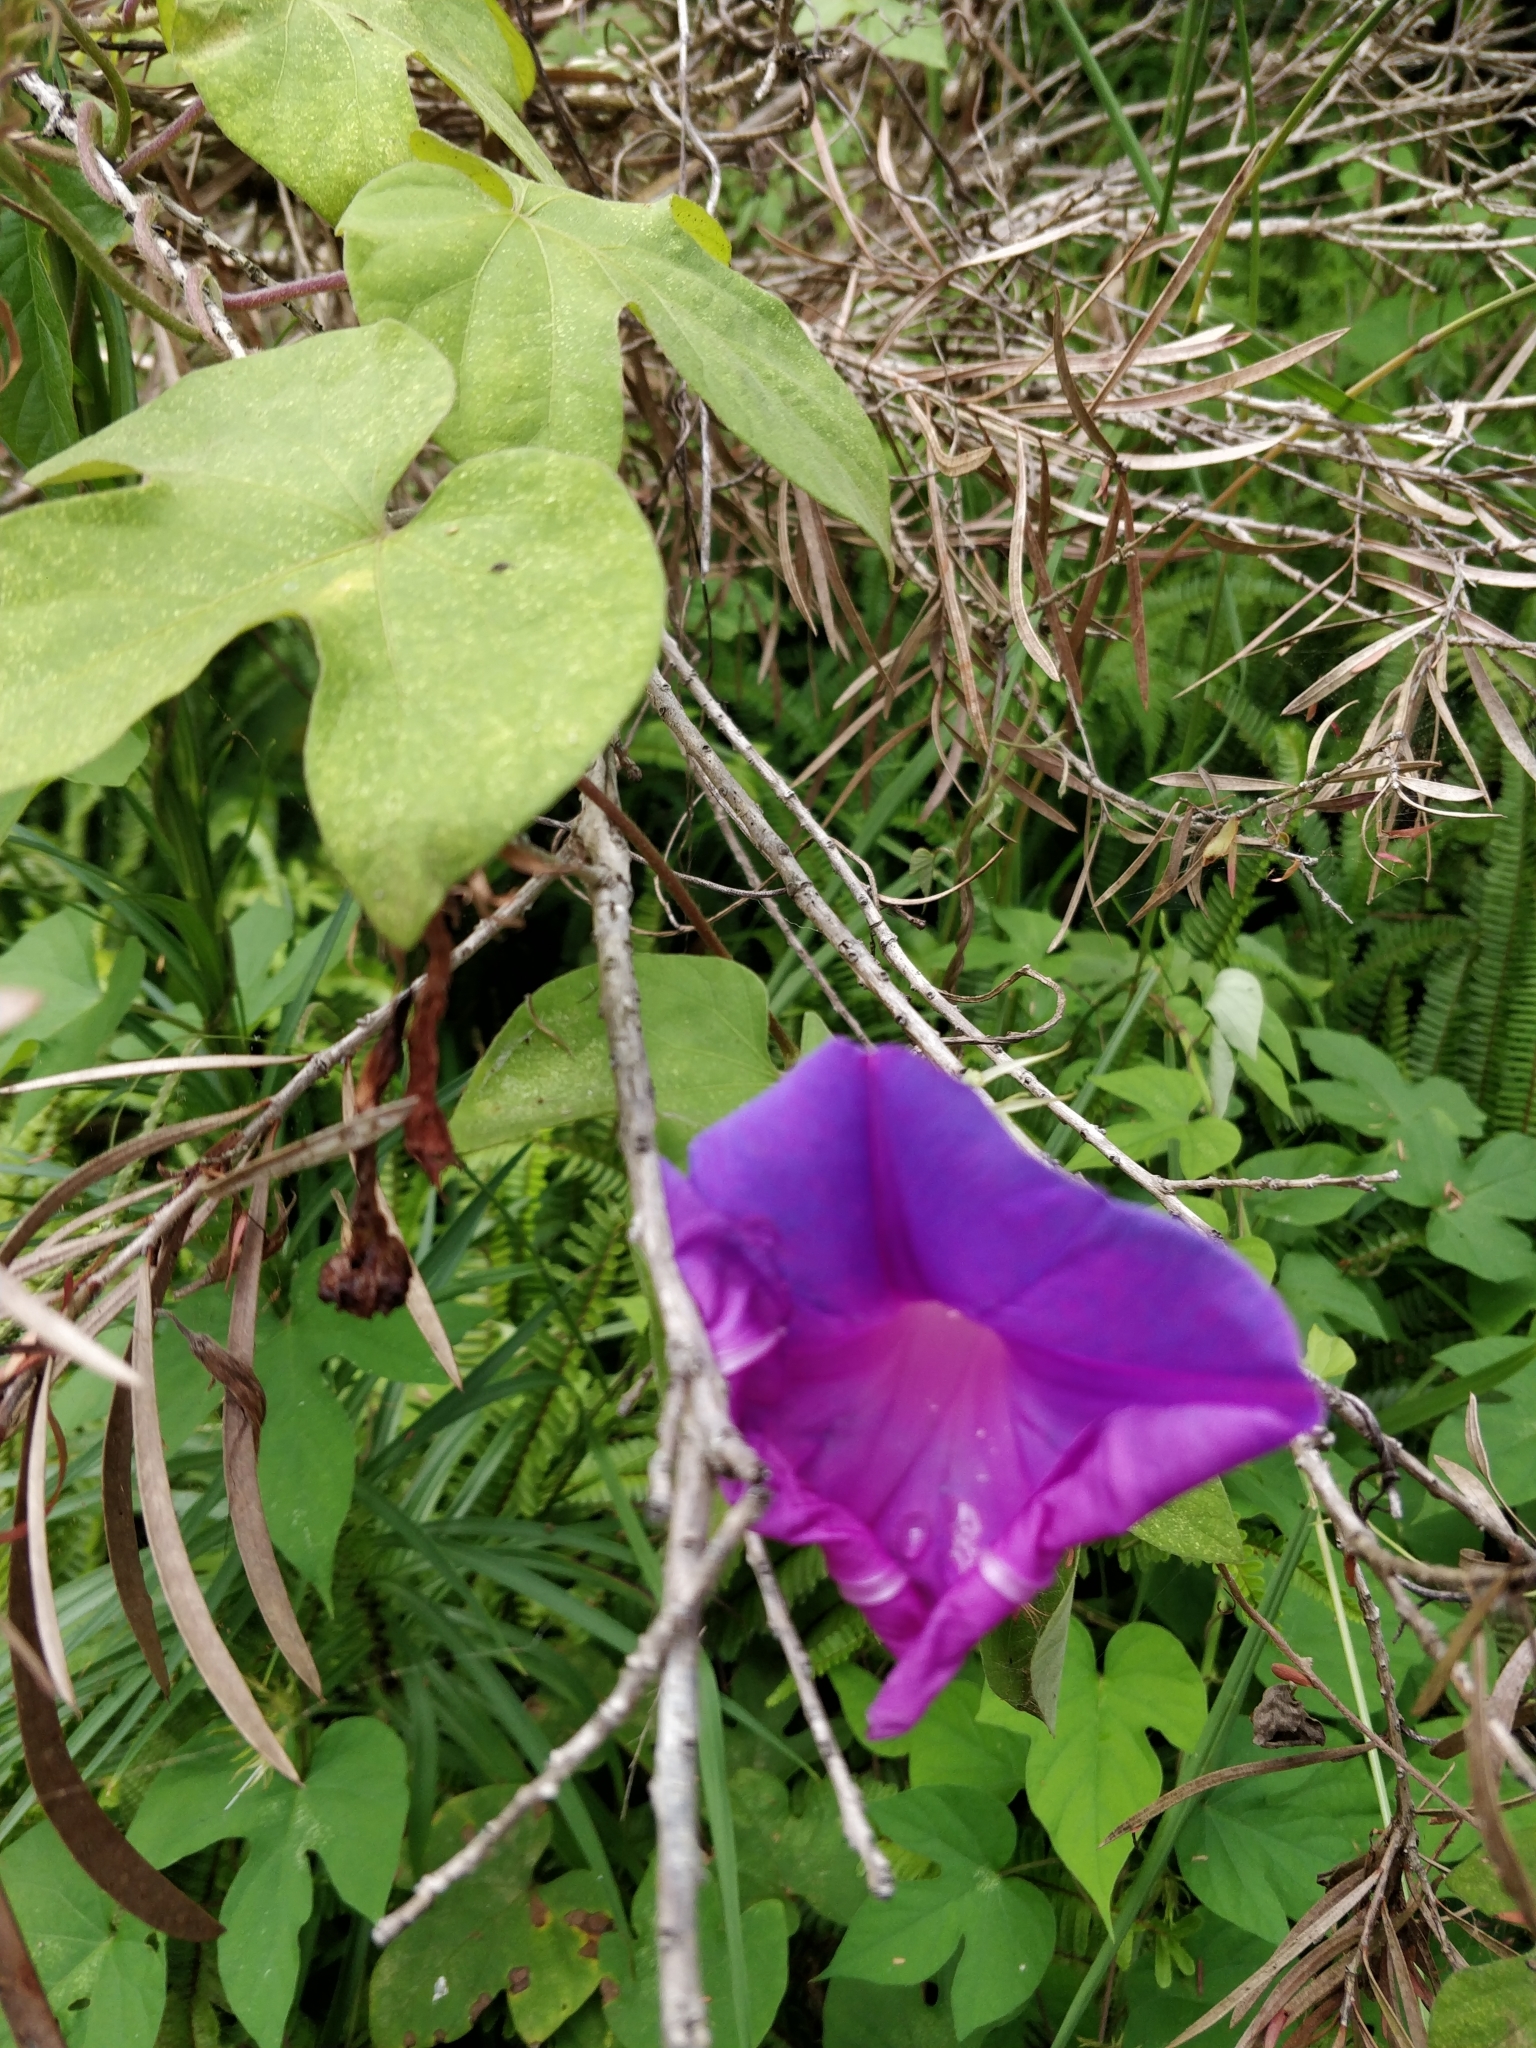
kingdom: Plantae
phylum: Tracheophyta
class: Magnoliopsida
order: Solanales
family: Convolvulaceae
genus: Ipomoea
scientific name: Ipomoea indica
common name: Blue dawnflower
